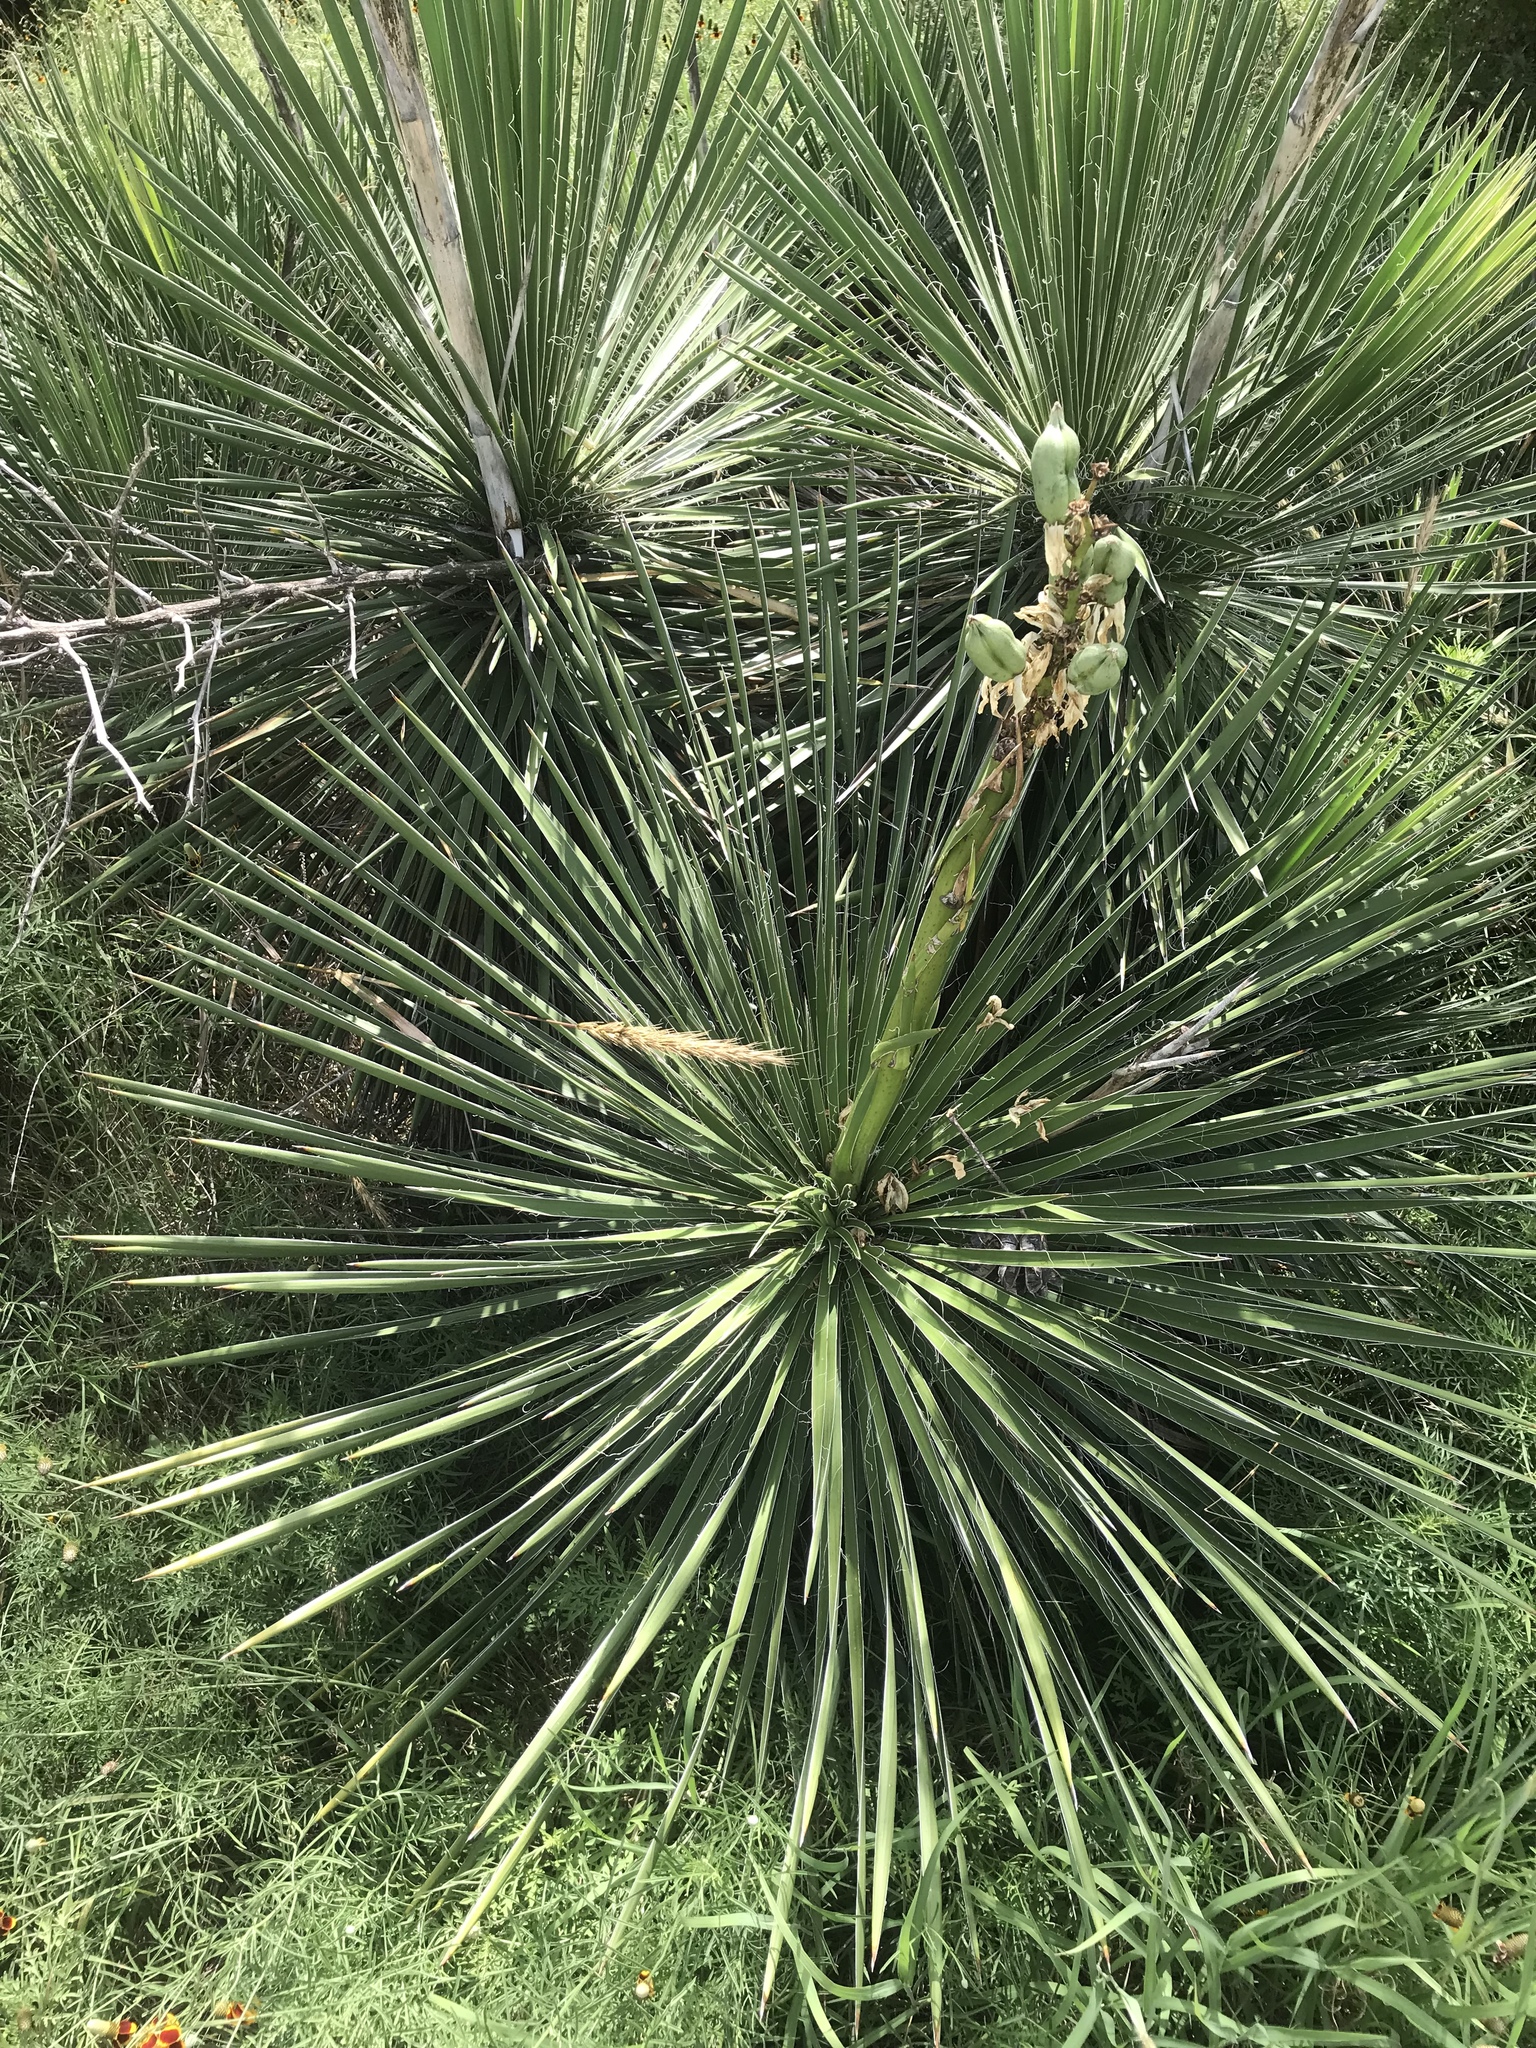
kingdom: Plantae
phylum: Tracheophyta
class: Liliopsida
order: Asparagales
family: Asparagaceae
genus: Yucca
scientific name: Yucca constricta
